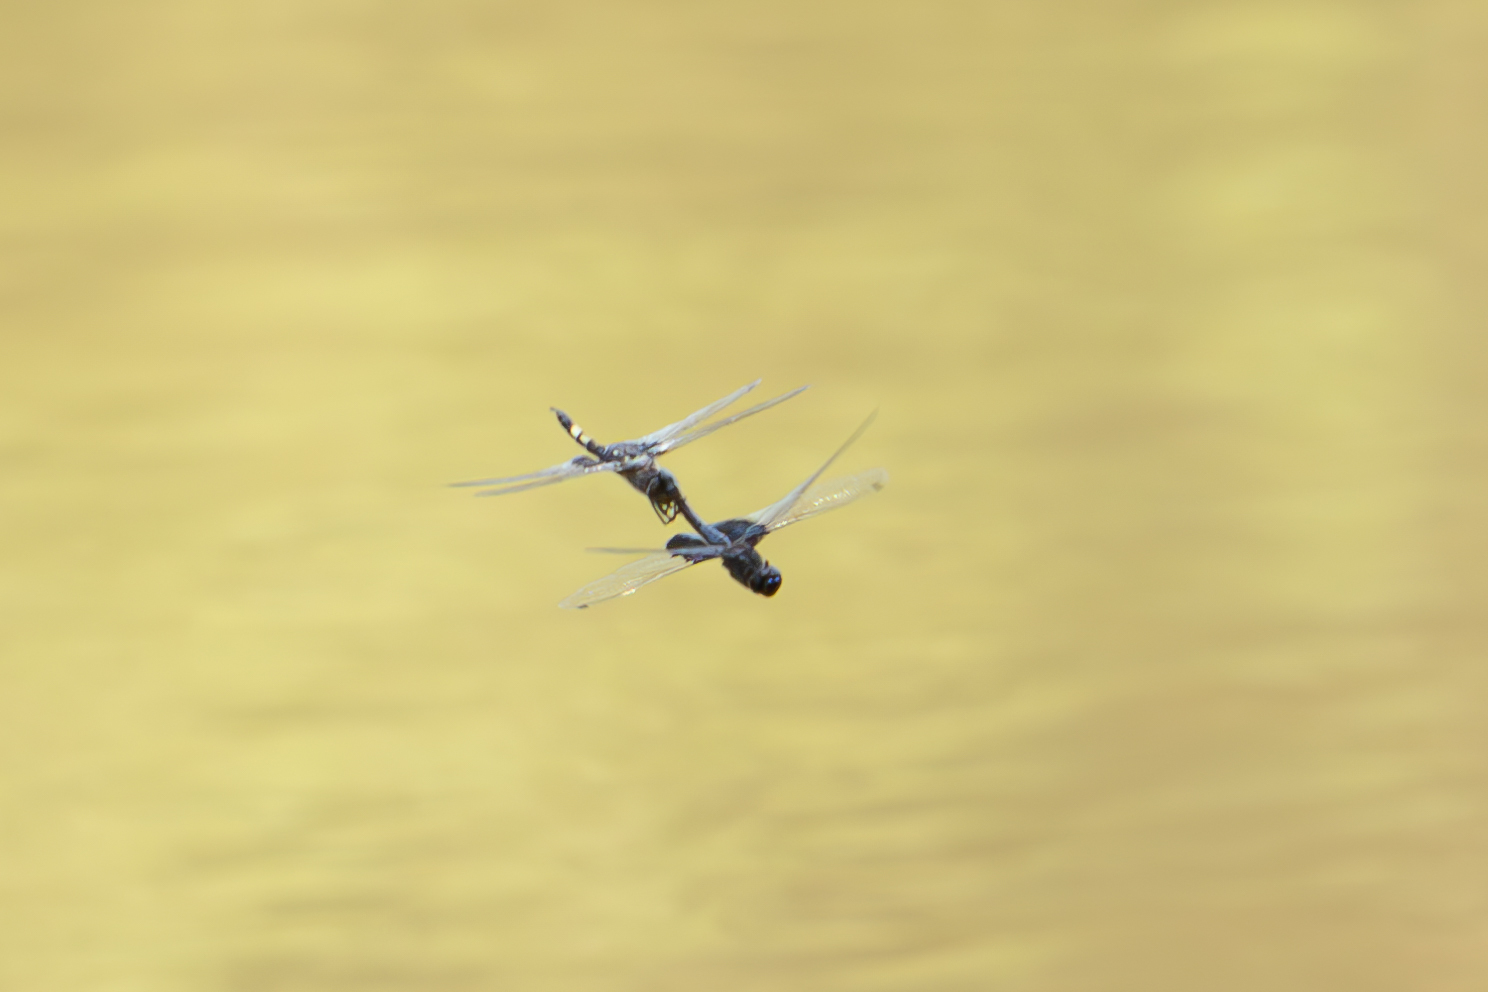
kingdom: Animalia
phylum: Arthropoda
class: Insecta
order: Odonata
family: Libellulidae
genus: Tramea
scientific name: Tramea lacerata
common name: Black saddlebags
